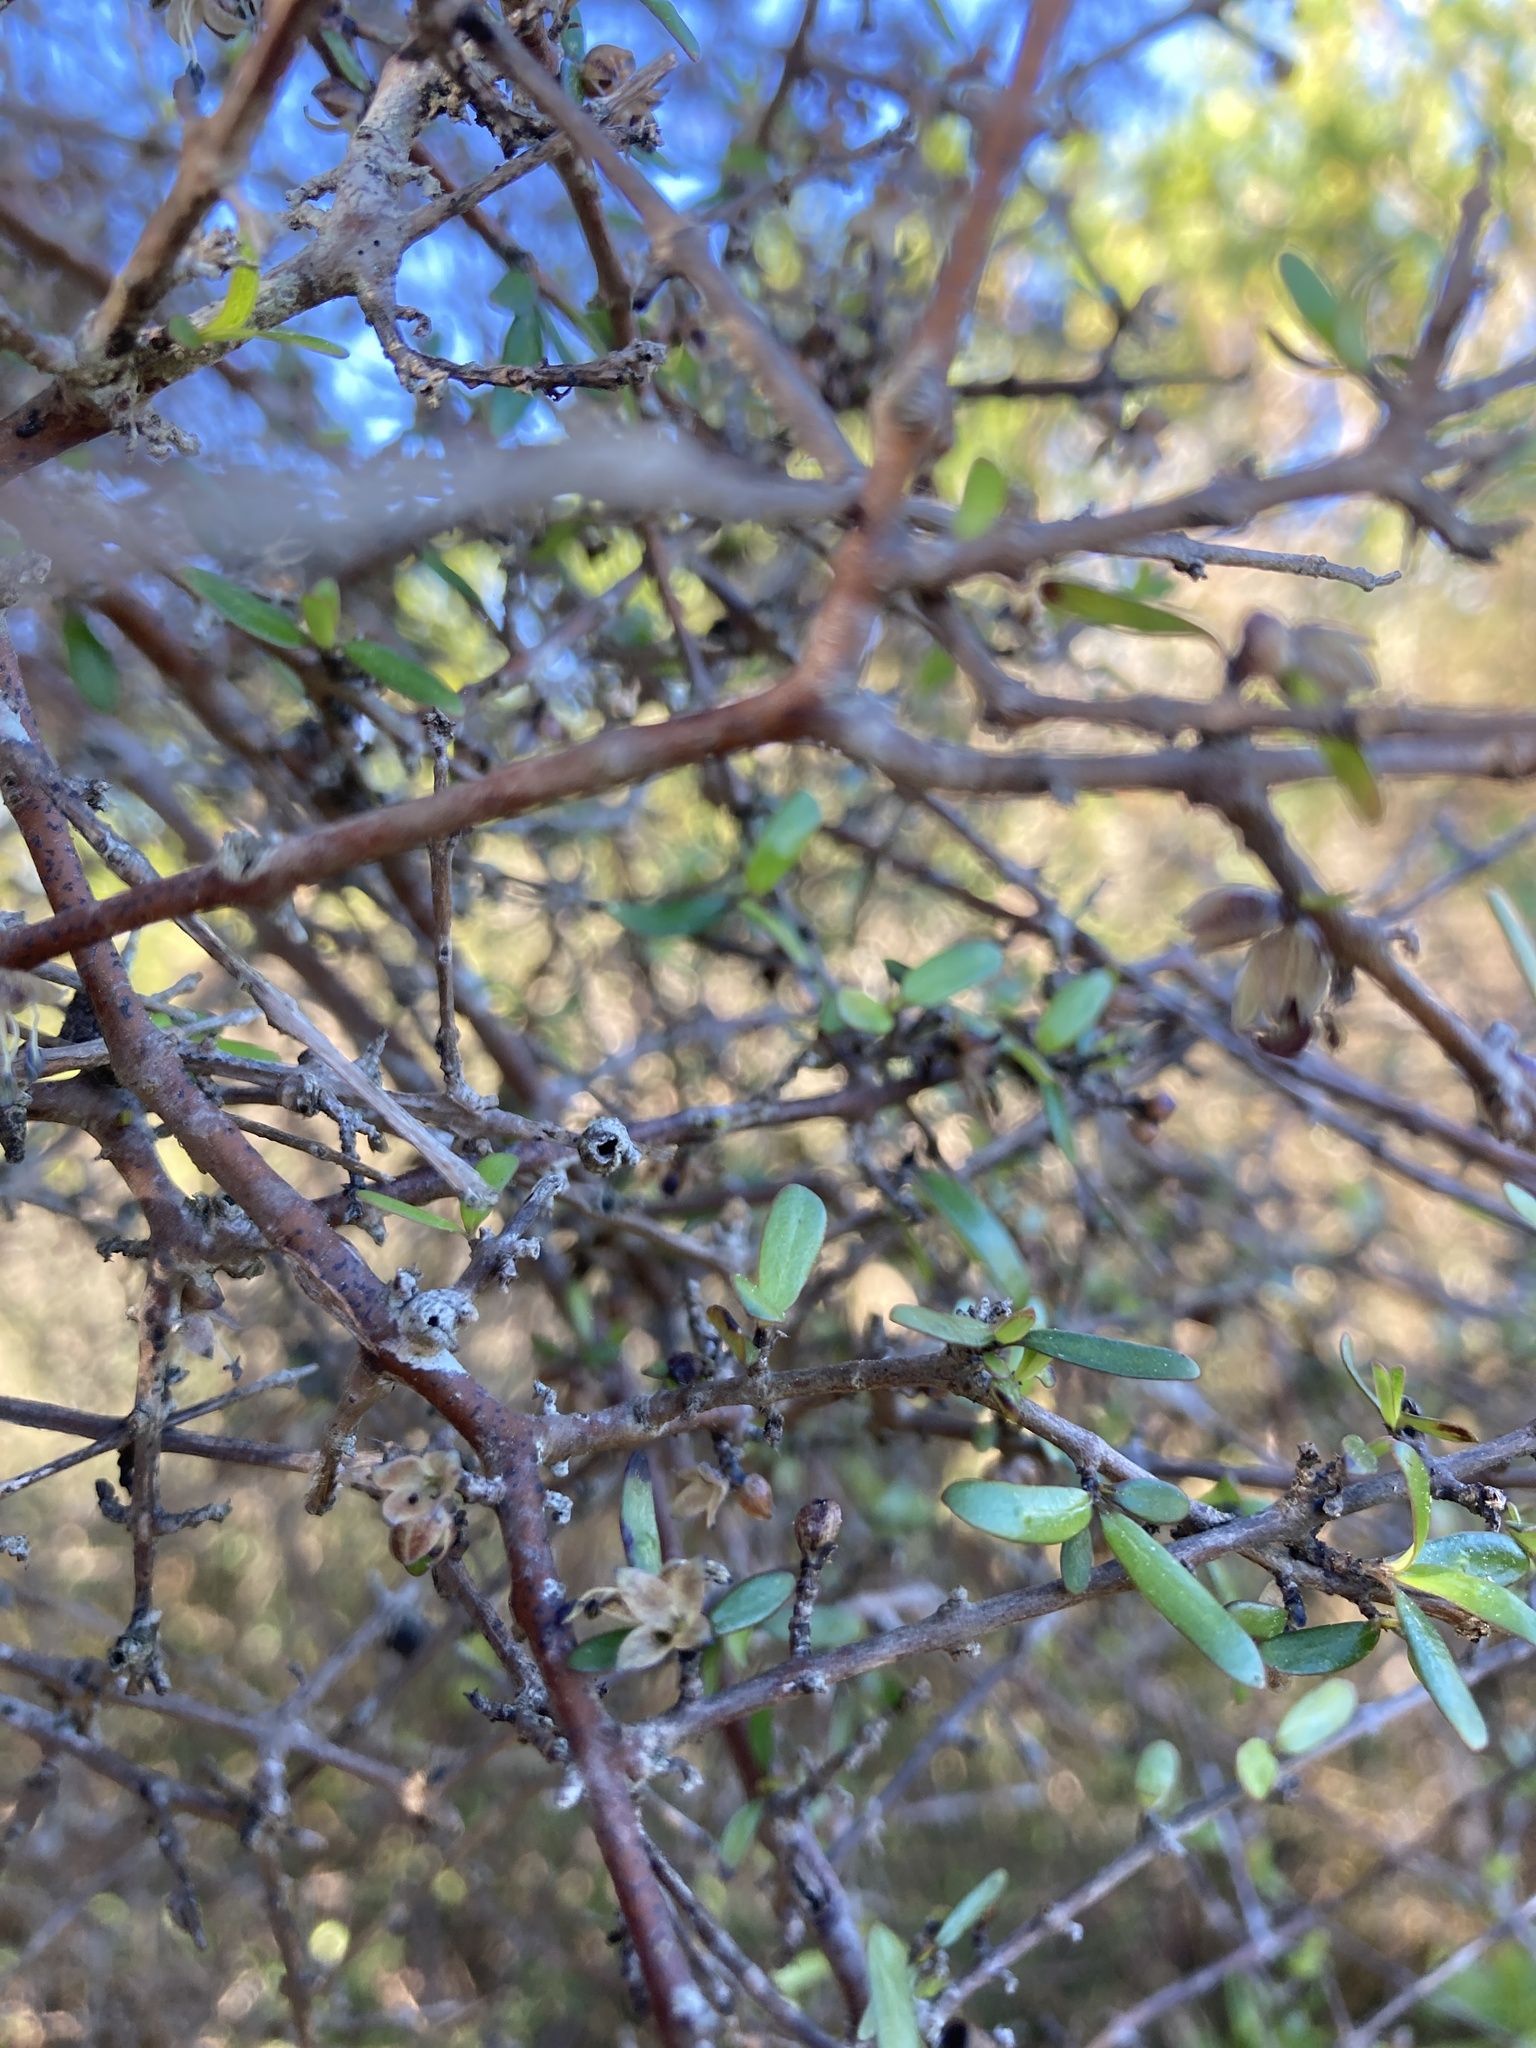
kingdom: Plantae
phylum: Tracheophyta
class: Magnoliopsida
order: Gentianales
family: Rubiaceae
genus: Coprosma
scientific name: Coprosma propinqua
